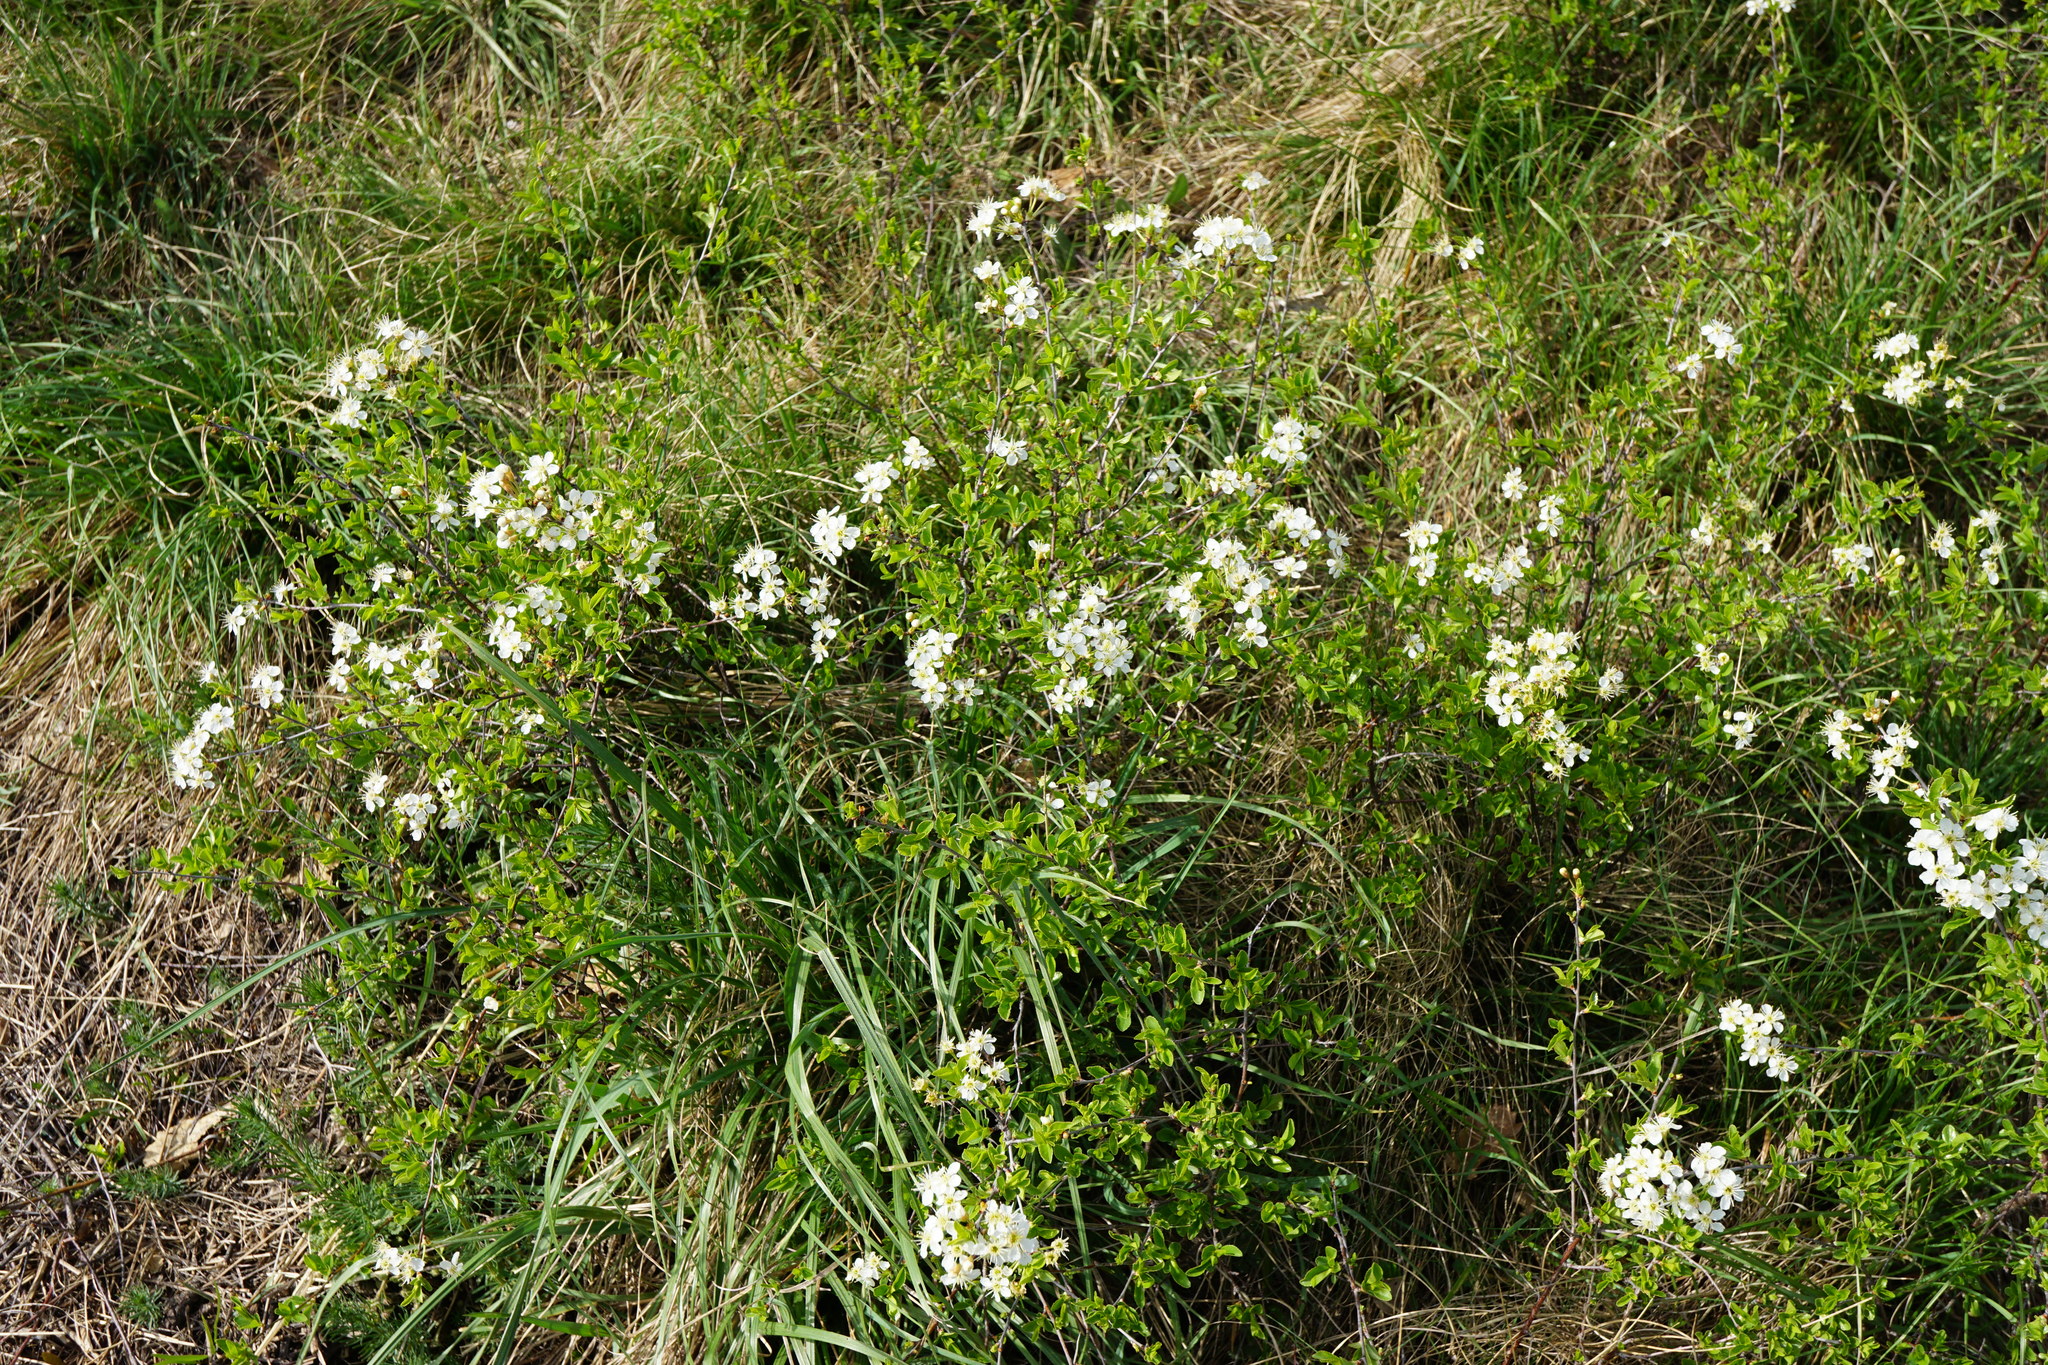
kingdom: Plantae
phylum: Tracheophyta
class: Magnoliopsida
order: Rosales
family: Rosaceae
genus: Prunus
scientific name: Prunus fruticosa
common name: European dwarf cherry
